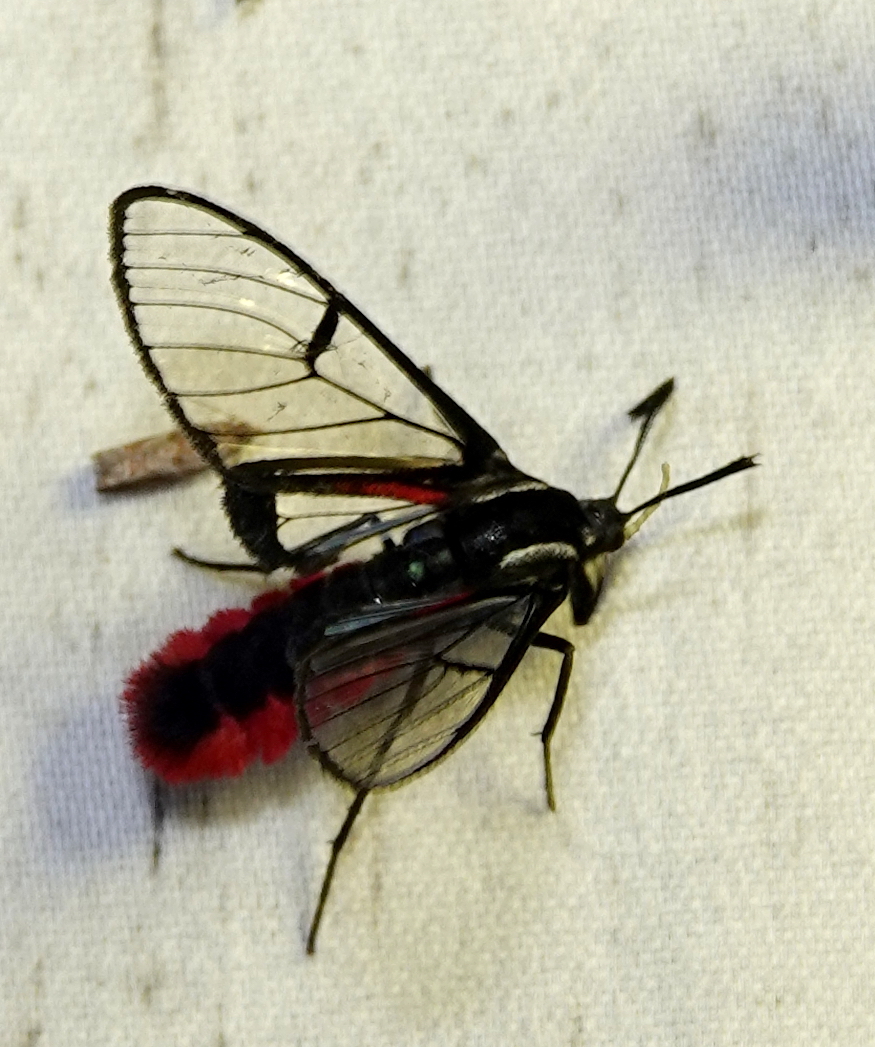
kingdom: Animalia
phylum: Arthropoda
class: Insecta
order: Lepidoptera
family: Erebidae
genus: Dinia
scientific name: Dinia eagrus
